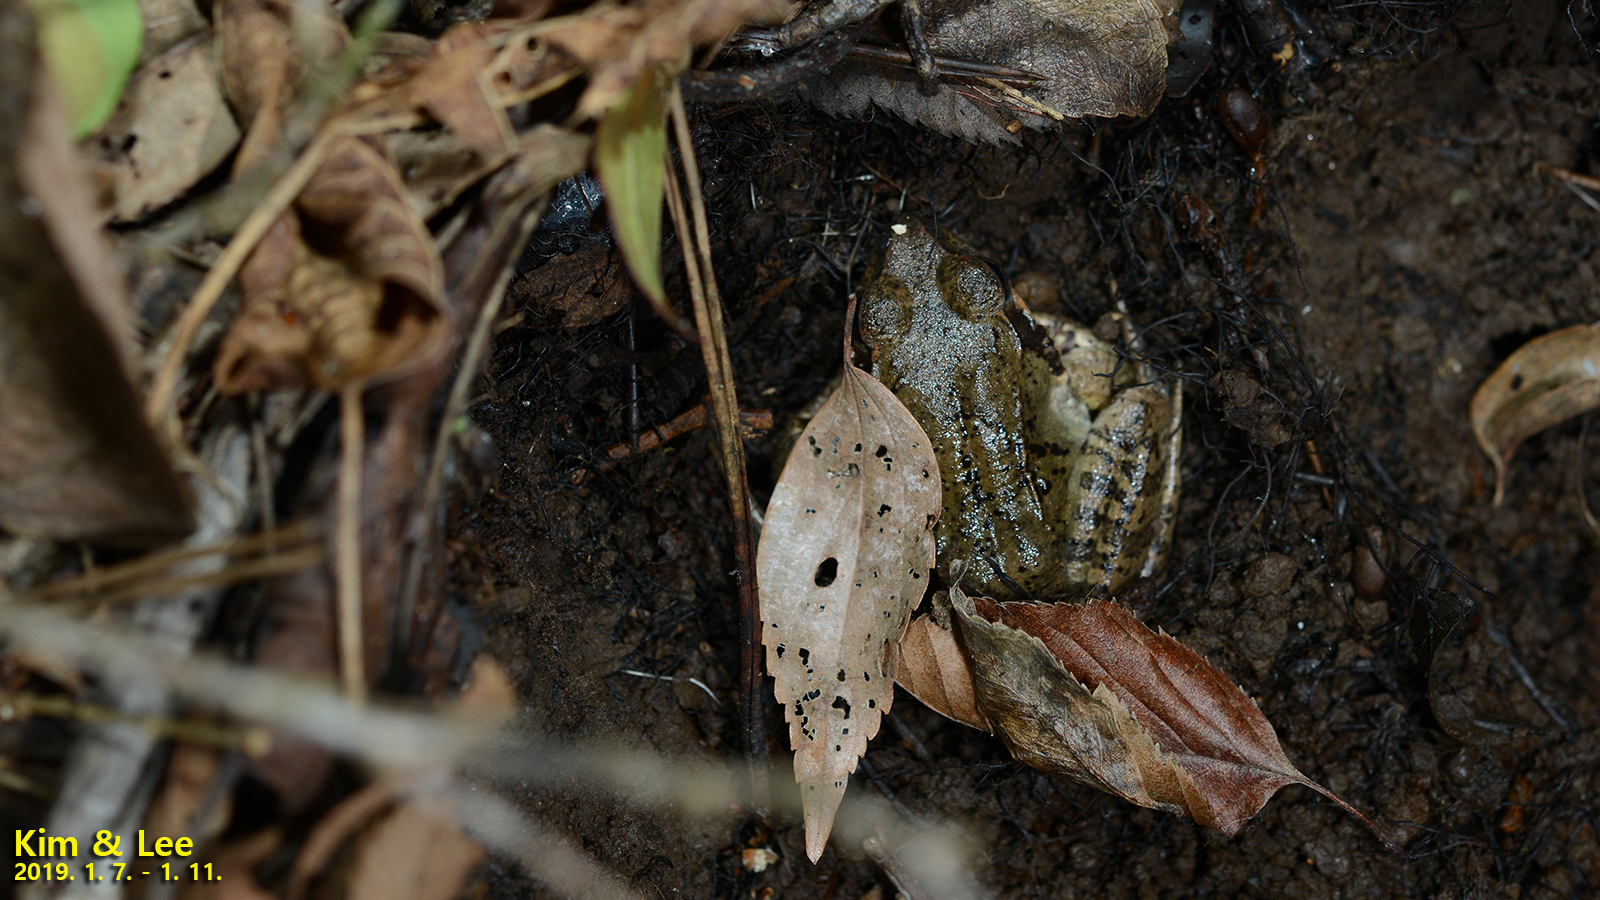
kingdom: Animalia
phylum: Chordata
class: Amphibia
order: Anura
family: Ranidae
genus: Rana
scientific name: Rana uenoi
